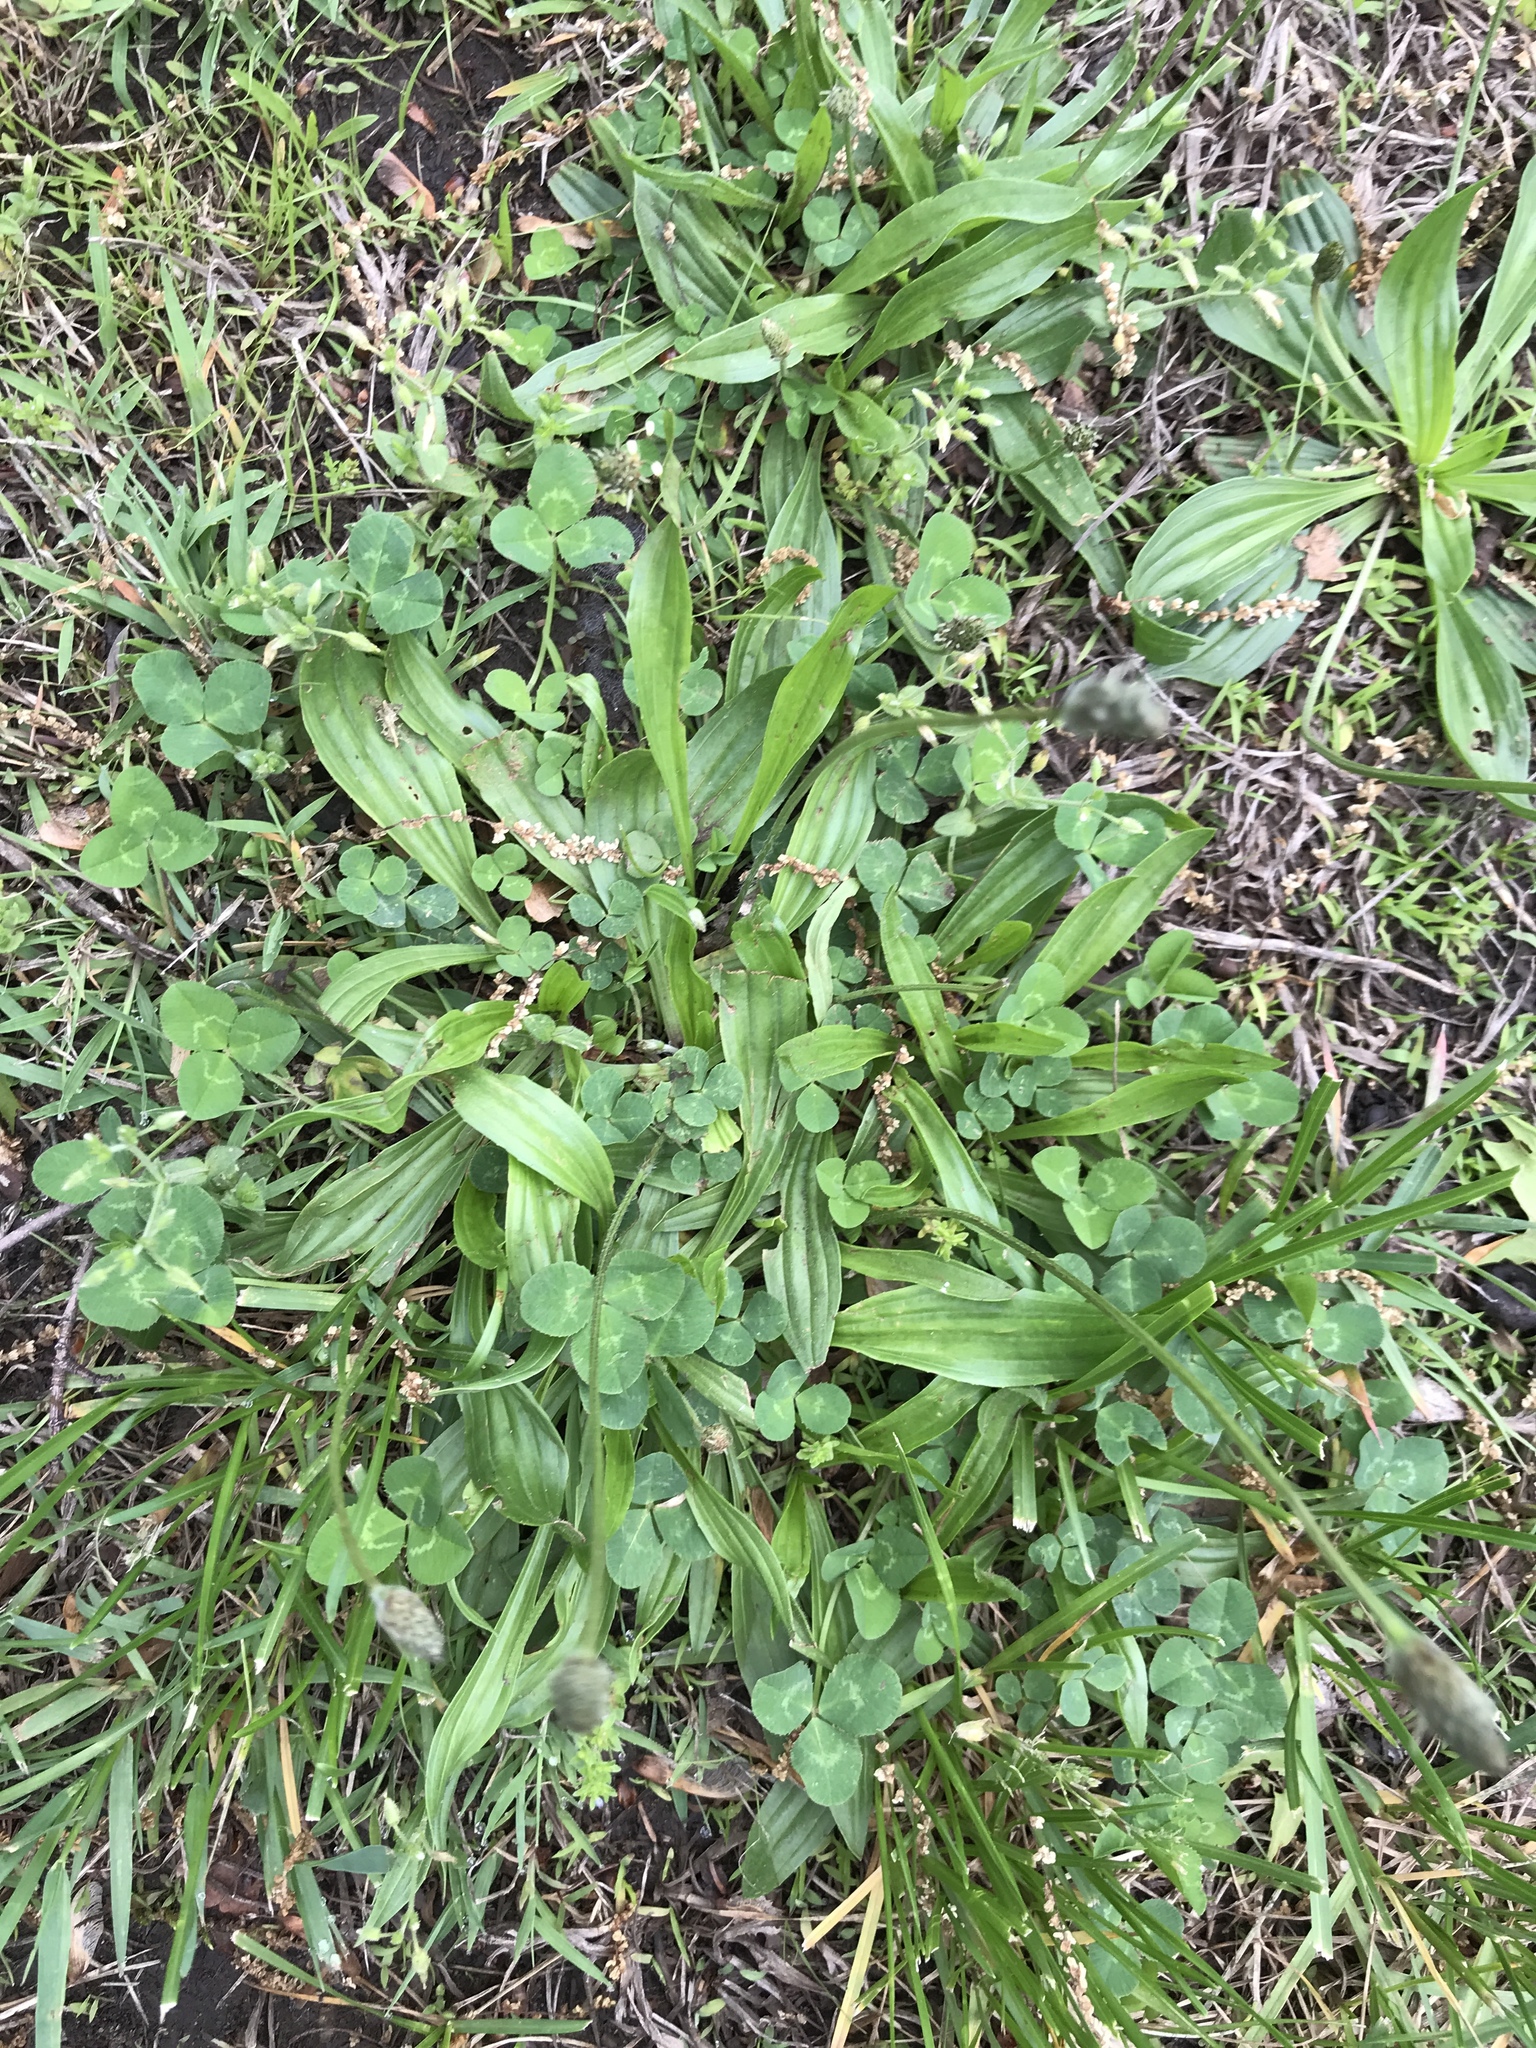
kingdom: Plantae
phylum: Tracheophyta
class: Magnoliopsida
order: Lamiales
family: Plantaginaceae
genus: Plantago
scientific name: Plantago lanceolata
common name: Ribwort plantain
